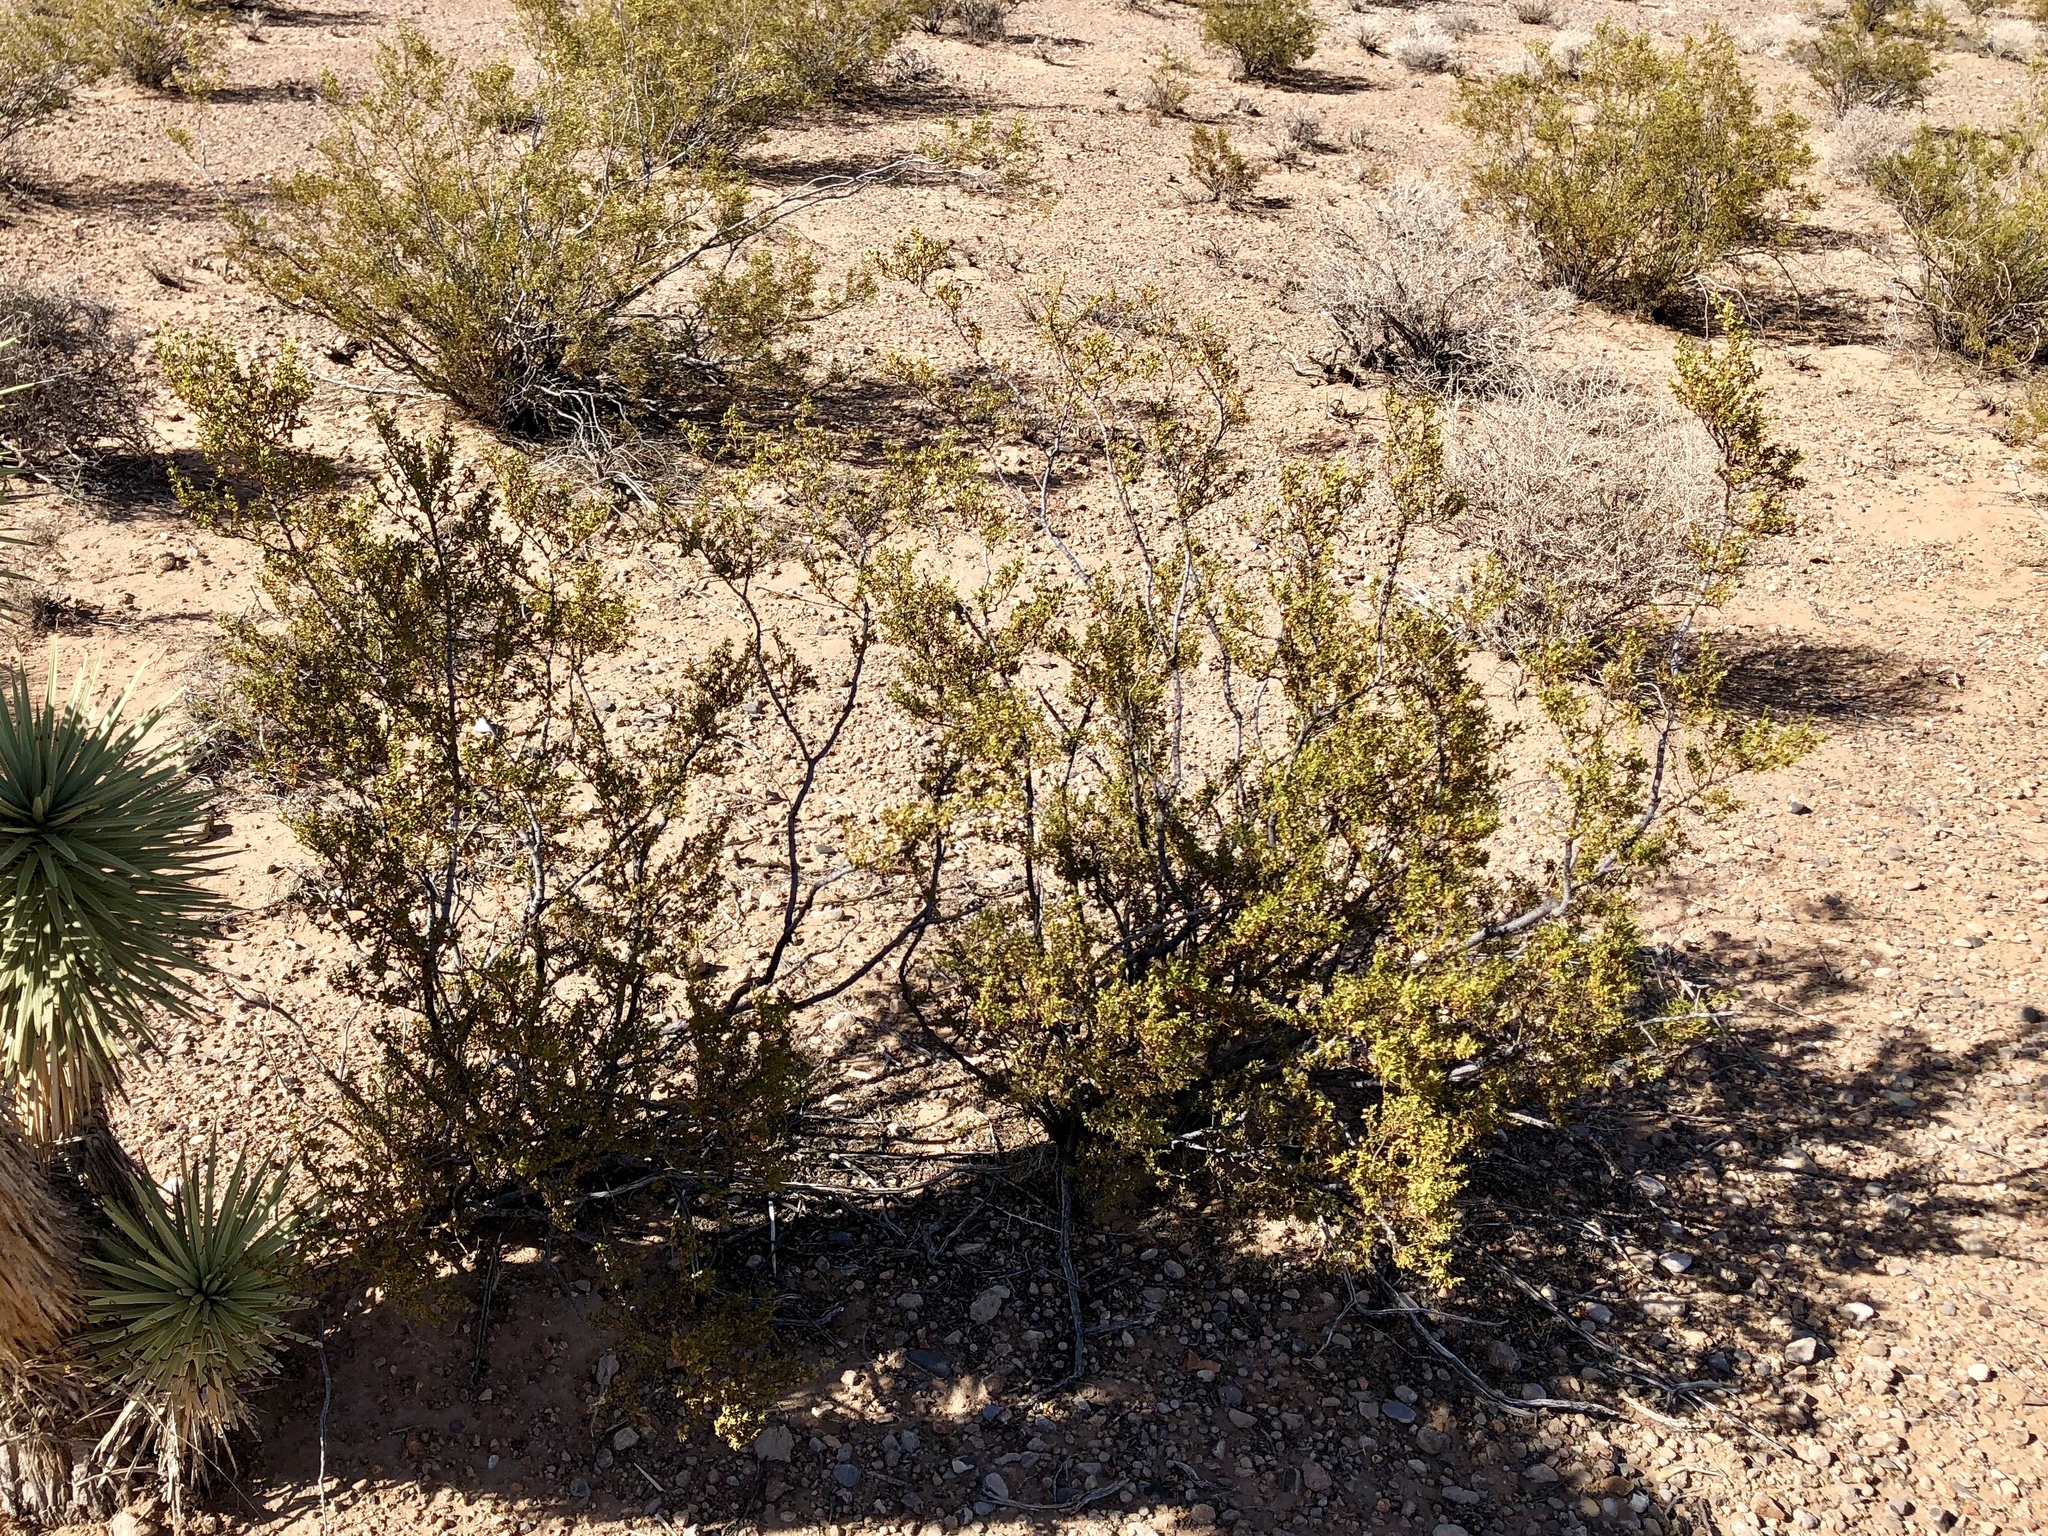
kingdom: Plantae
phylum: Tracheophyta
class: Magnoliopsida
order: Zygophyllales
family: Zygophyllaceae
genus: Larrea
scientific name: Larrea tridentata
